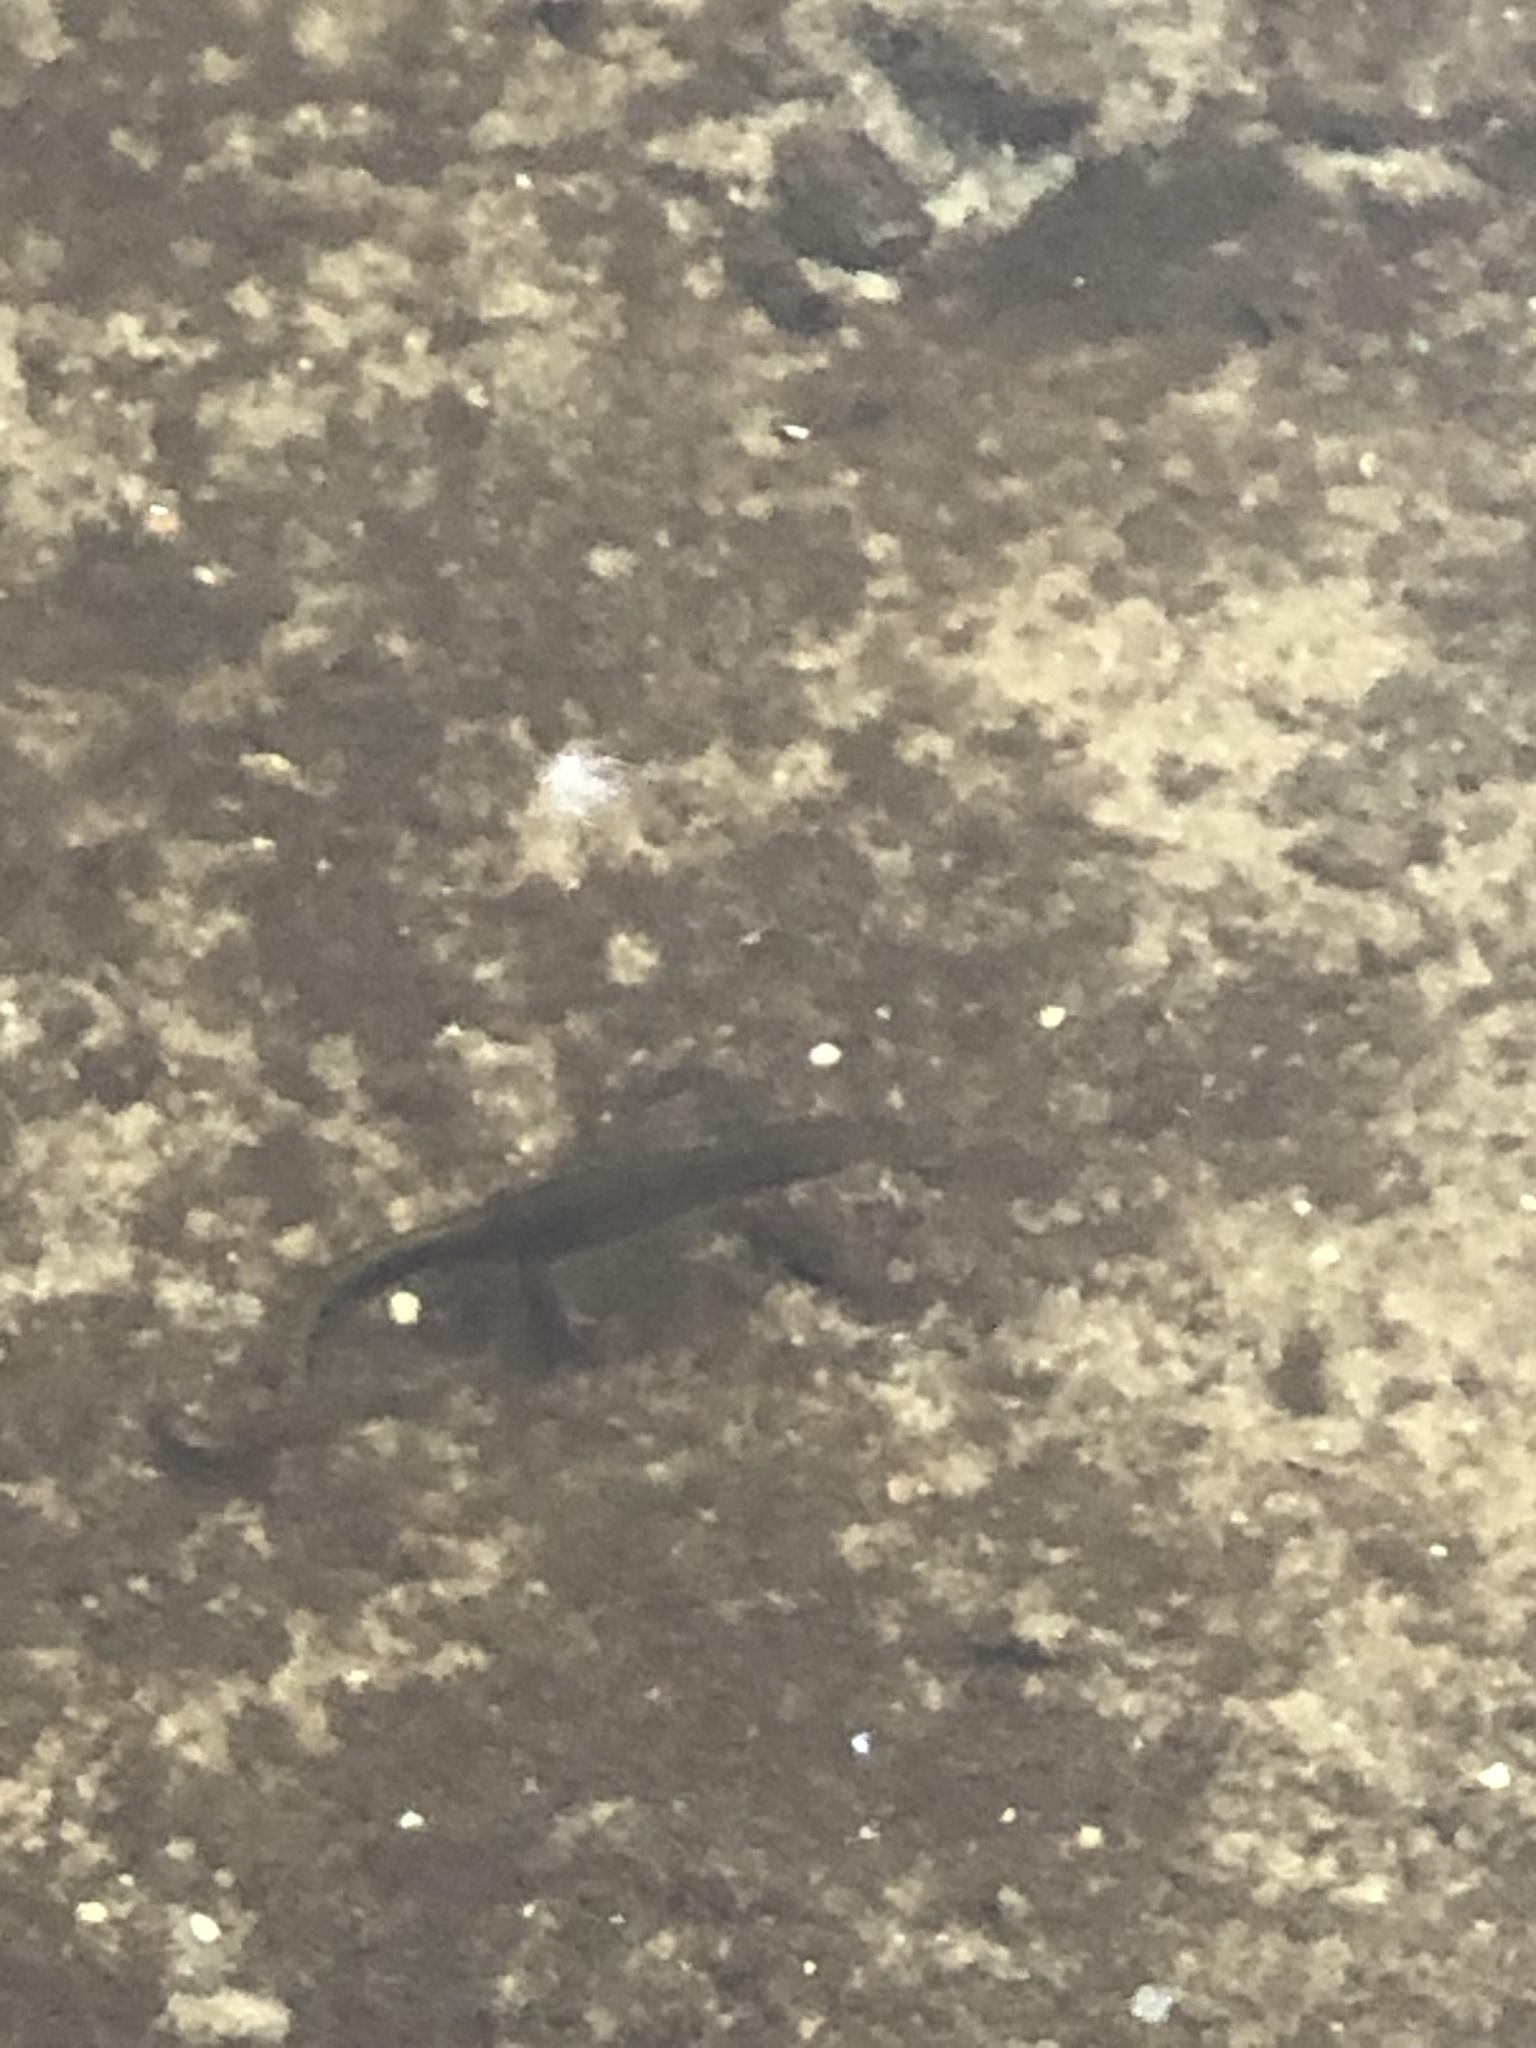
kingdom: Animalia
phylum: Chordata
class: Amphibia
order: Caudata
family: Salamandridae
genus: Notophthalmus
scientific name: Notophthalmus viridescens
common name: Eastern newt
